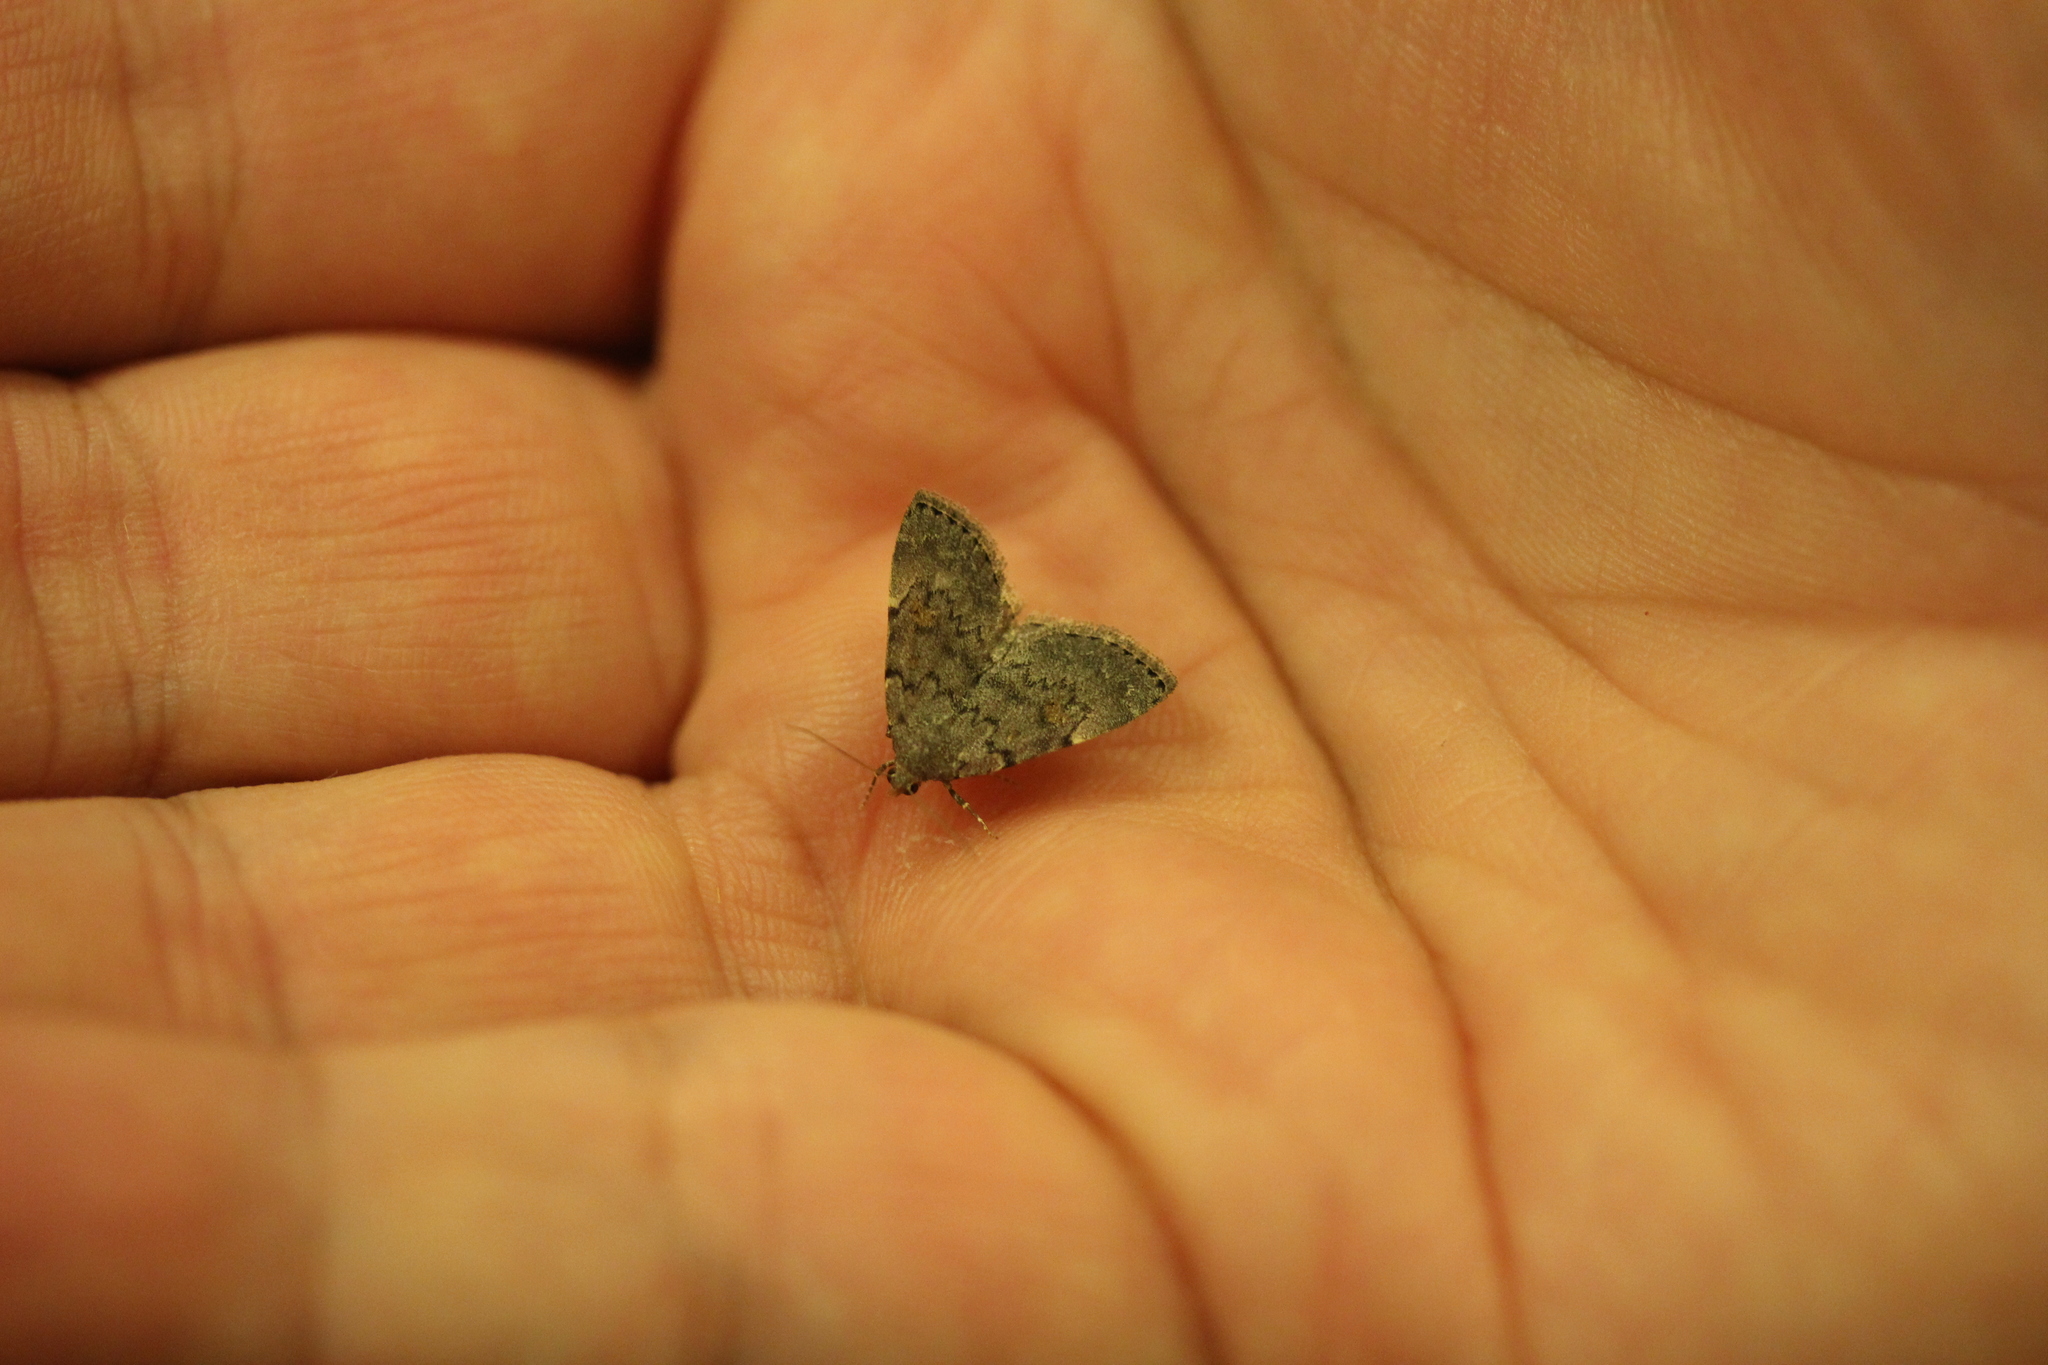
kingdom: Animalia
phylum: Arthropoda
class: Insecta
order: Lepidoptera
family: Erebidae
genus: Idia
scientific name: Idia aemula
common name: Common idia moth
